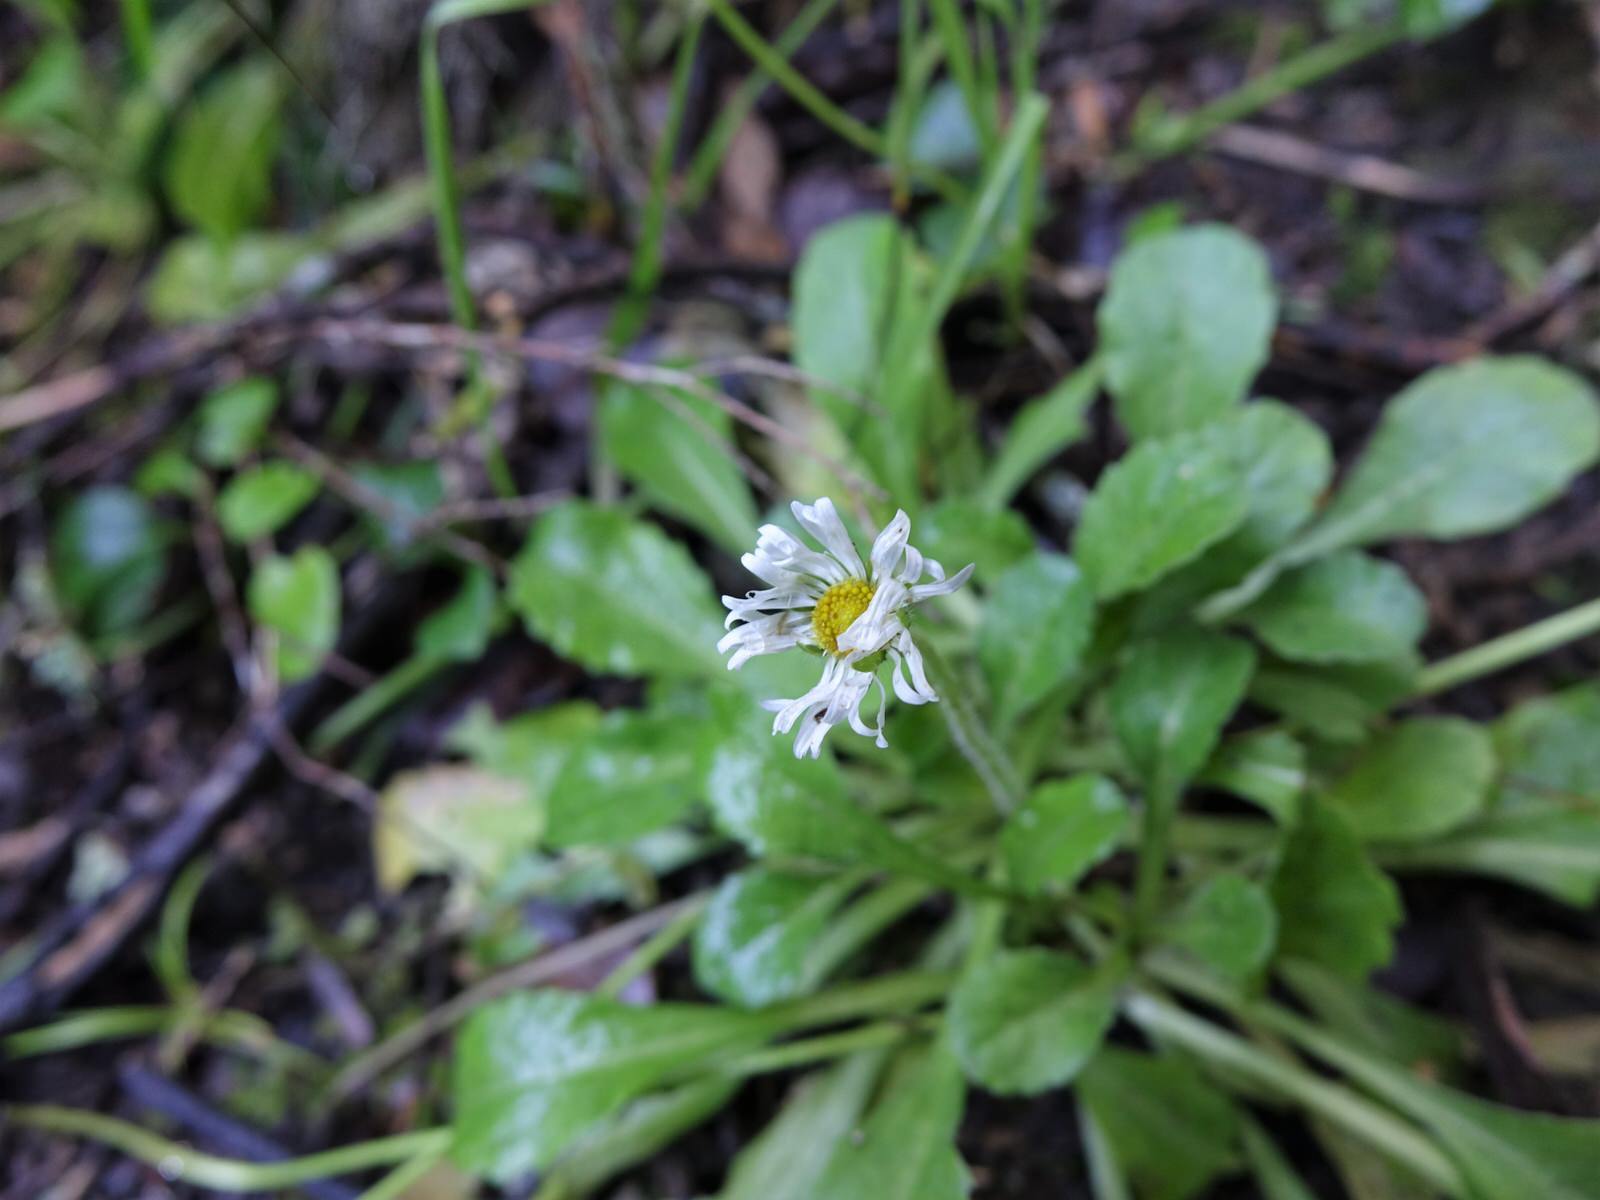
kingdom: Plantae
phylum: Tracheophyta
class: Magnoliopsida
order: Asterales
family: Asteraceae
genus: Bellis
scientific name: Bellis perennis
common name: Lawndaisy
